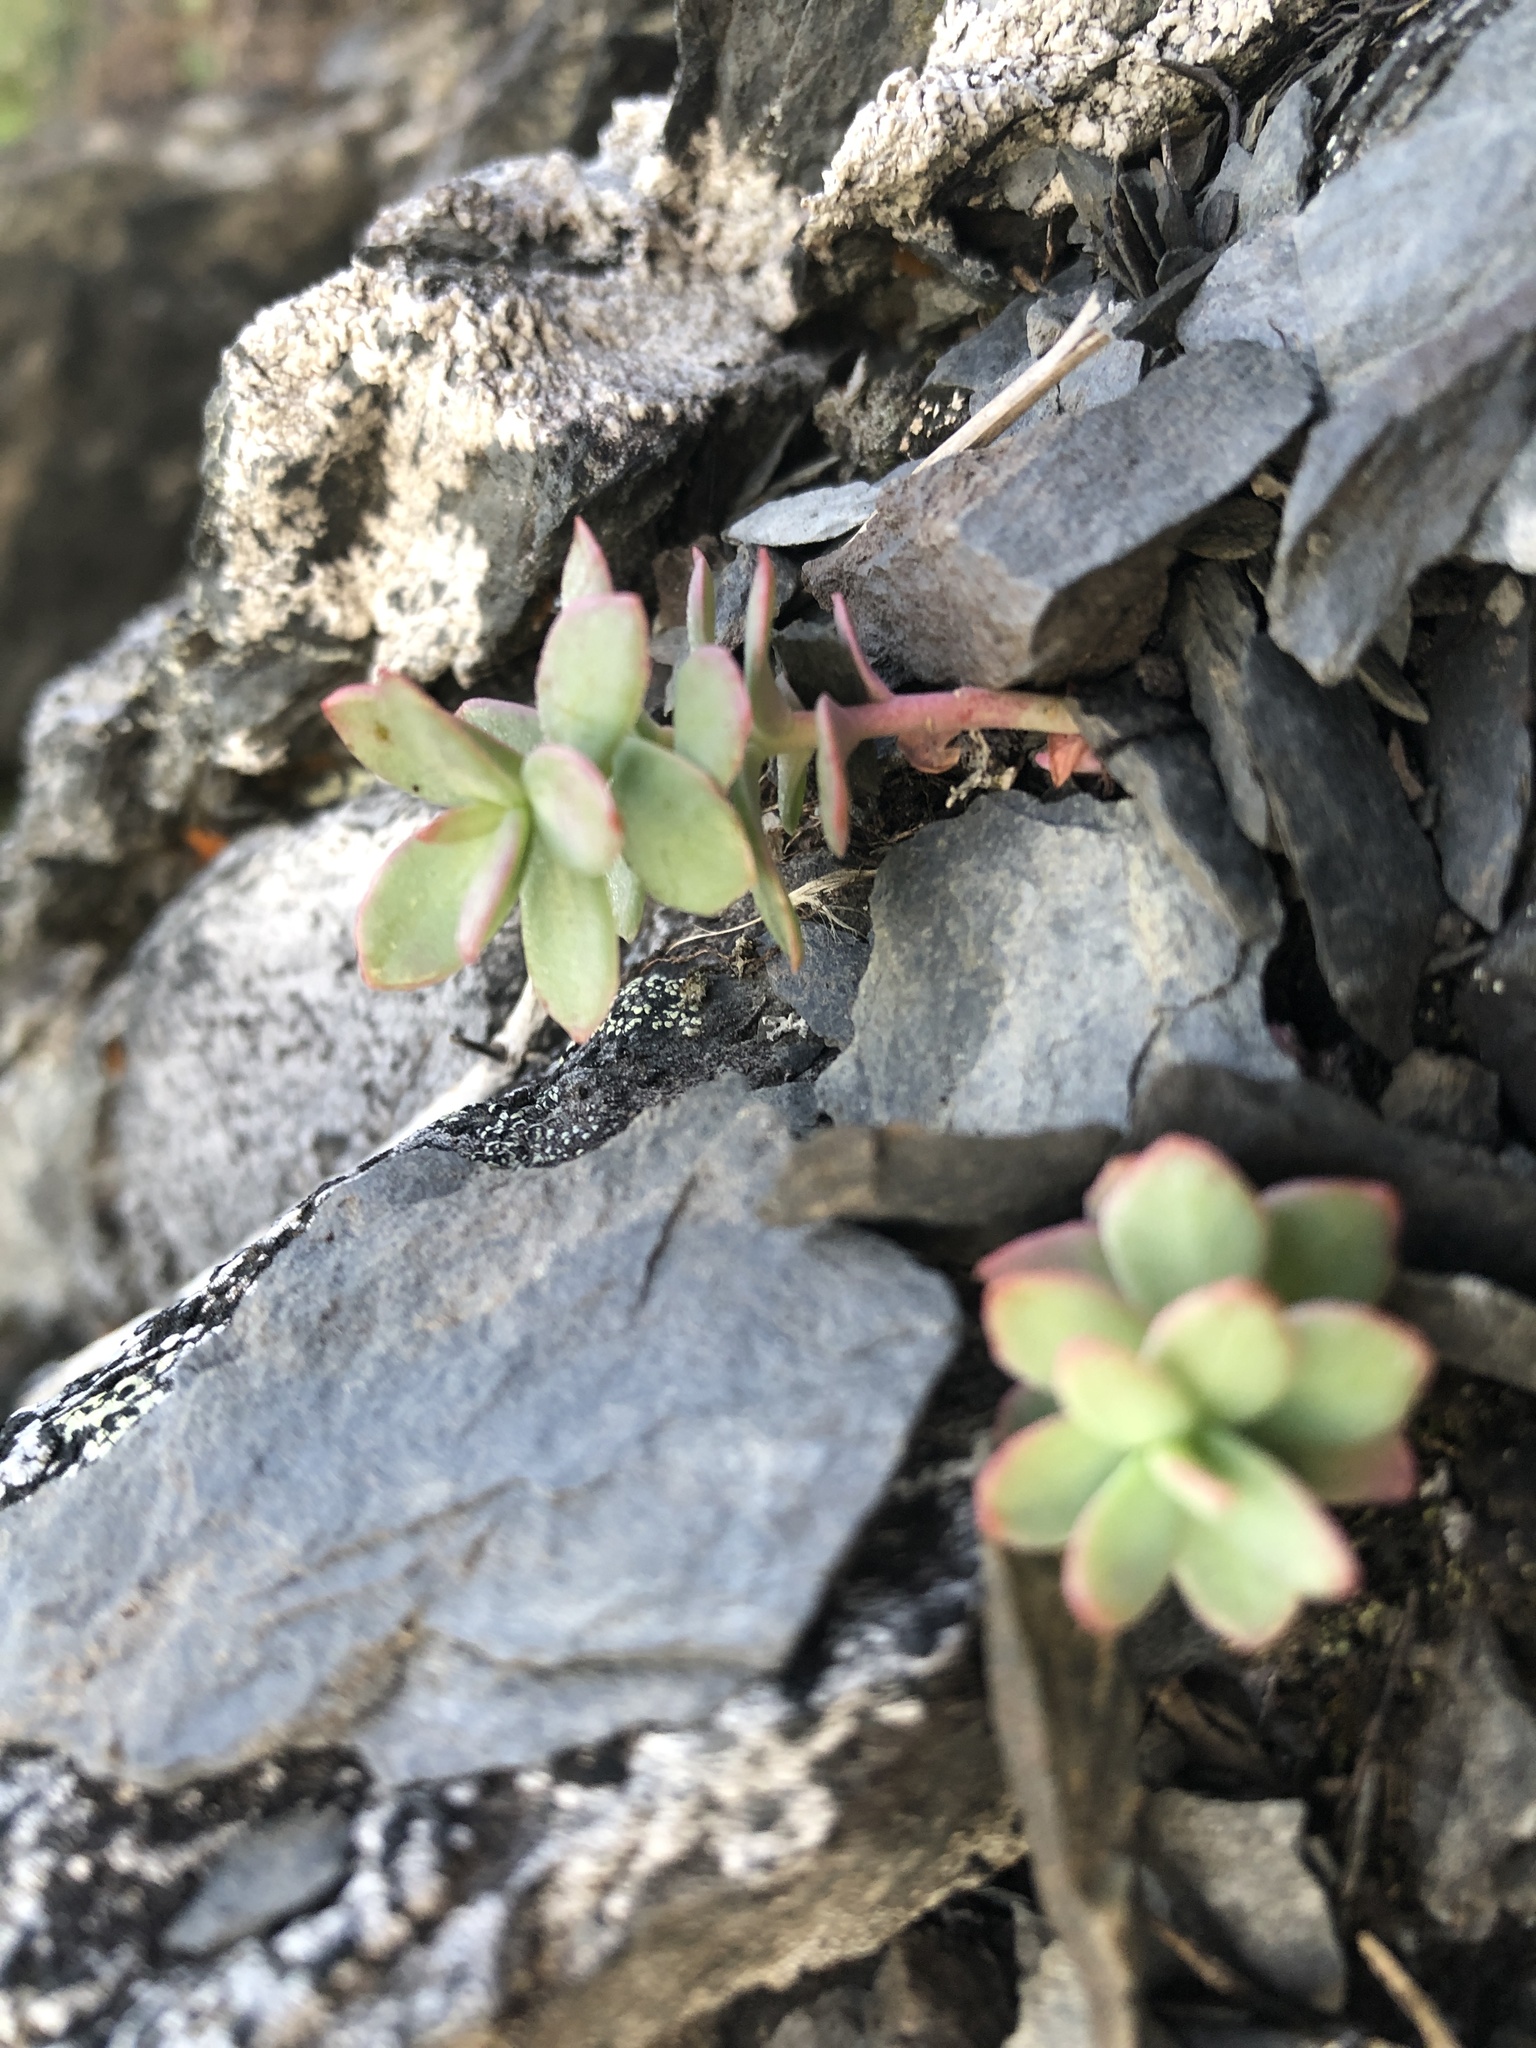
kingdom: Plantae
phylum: Tracheophyta
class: Magnoliopsida
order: Saxifragales
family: Crassulaceae
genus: Rhodiola
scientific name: Rhodiola rosea
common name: Roseroot
